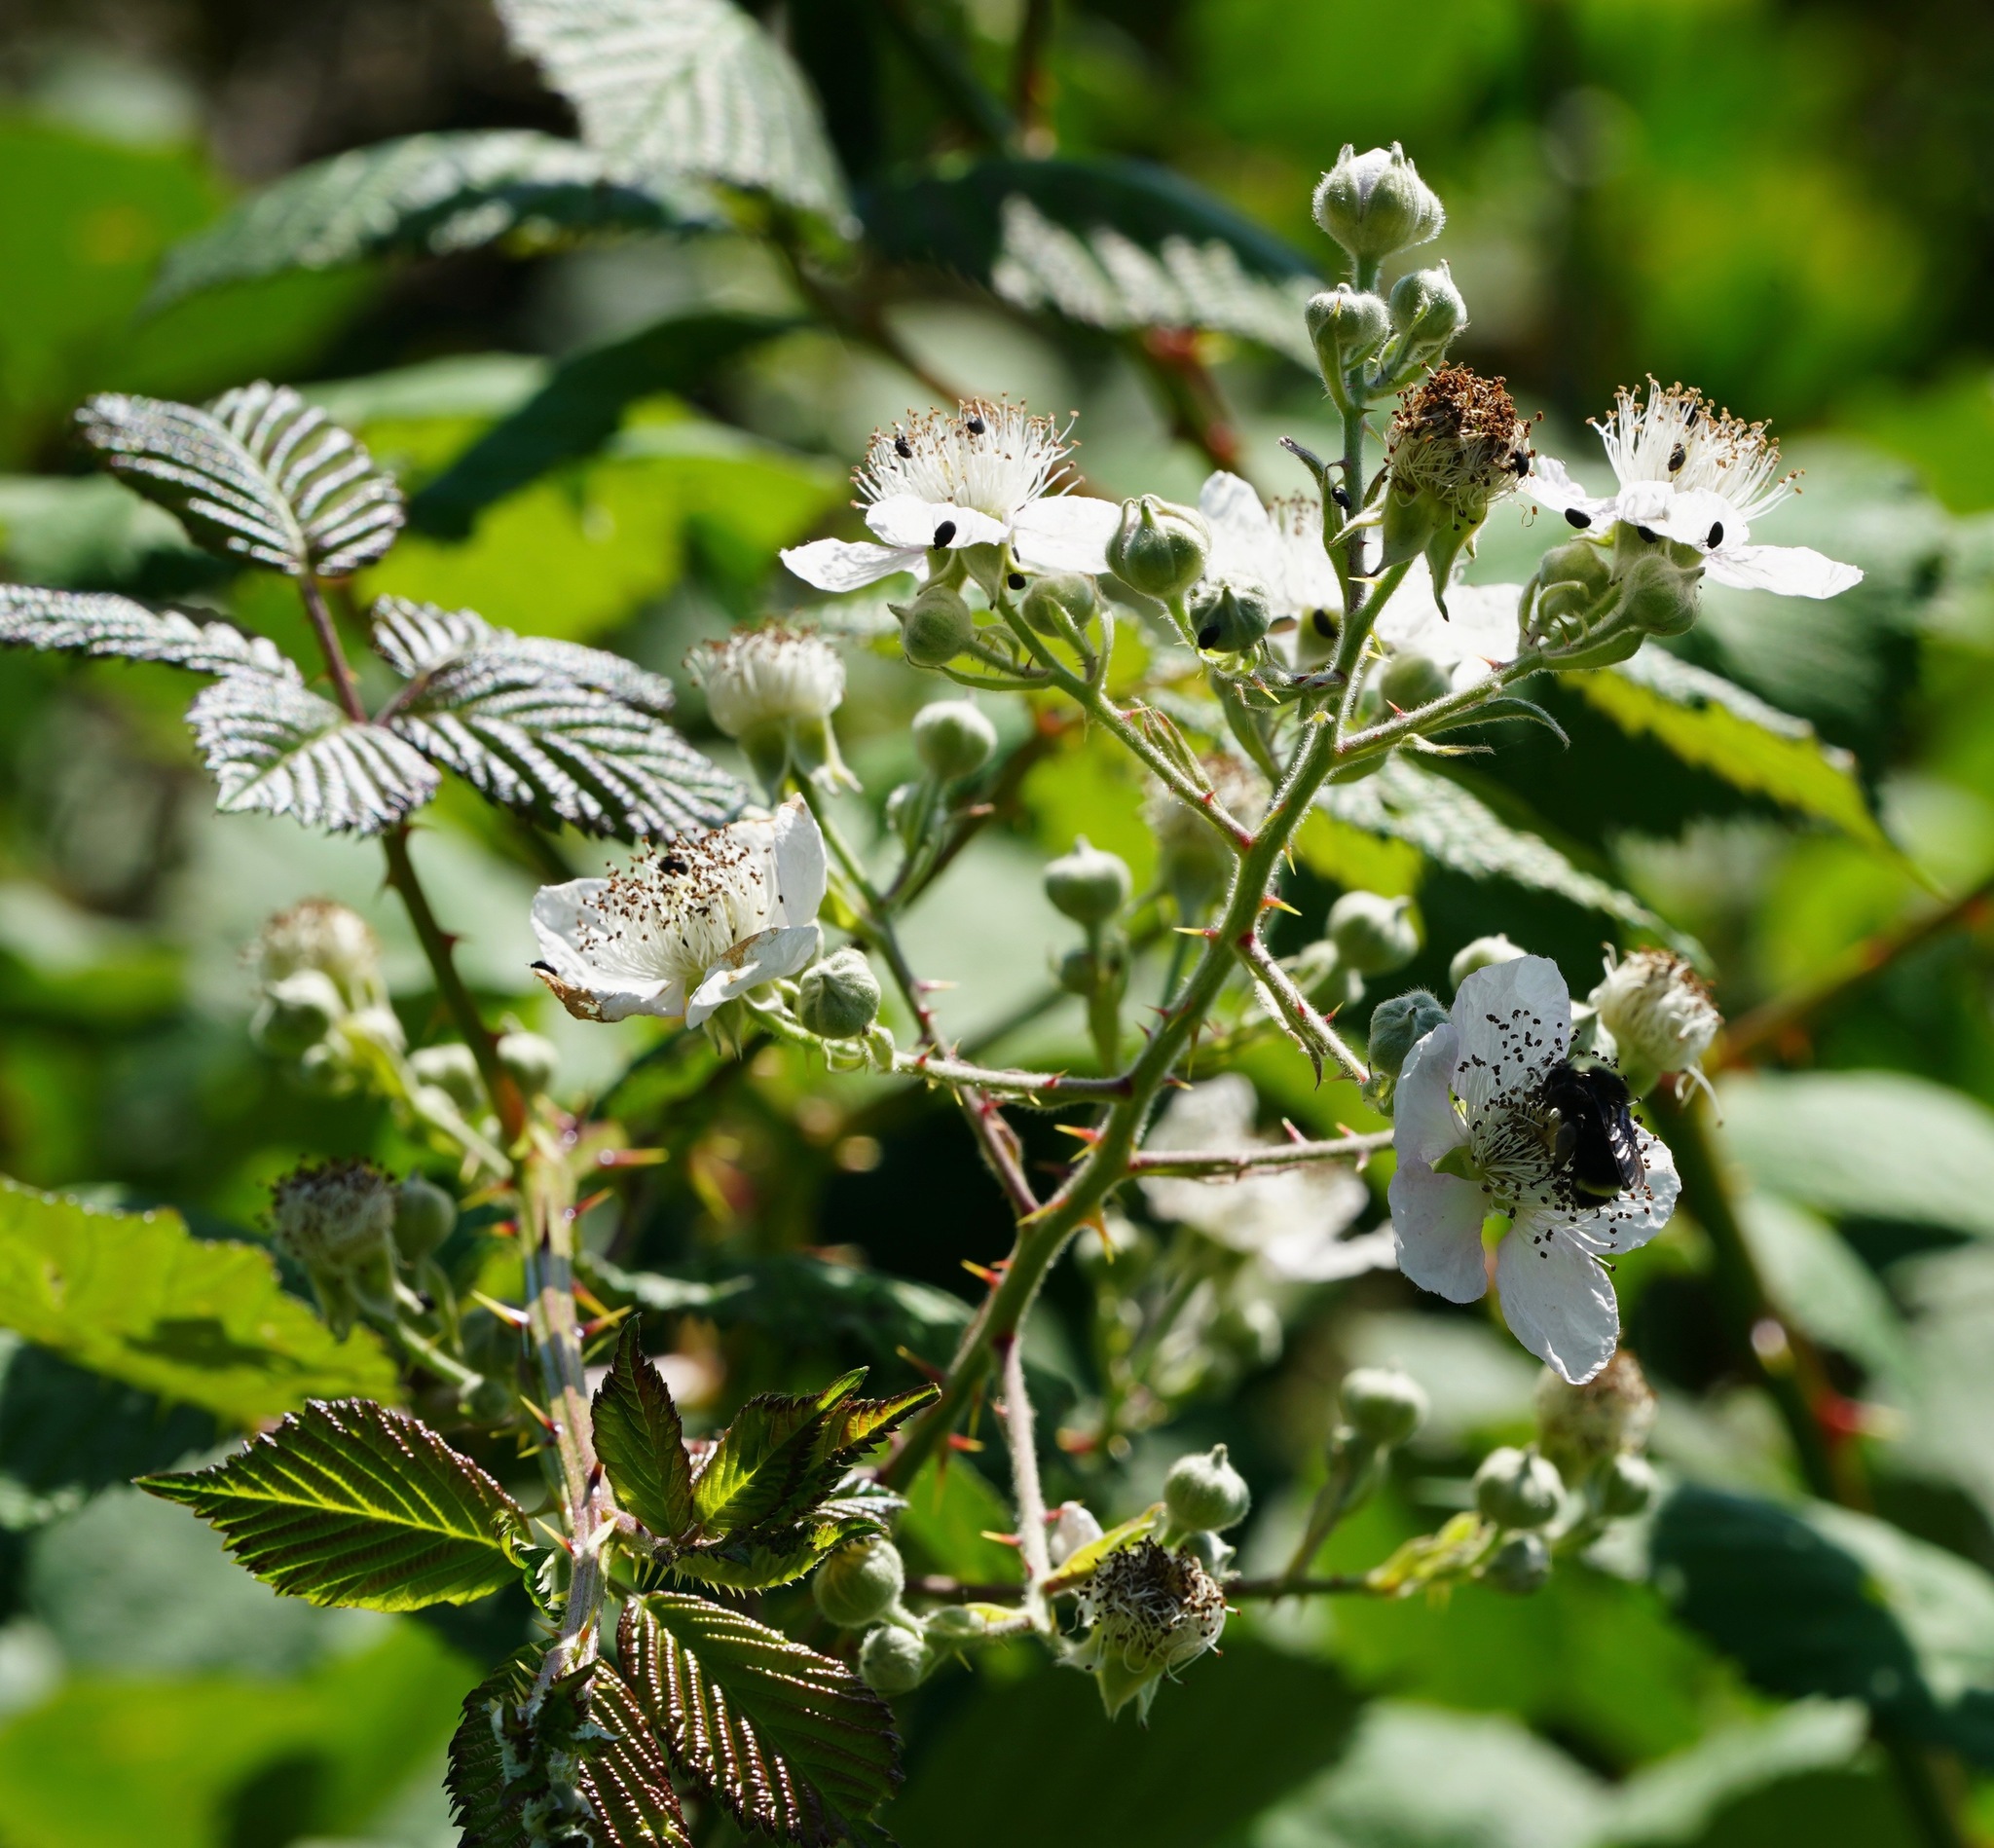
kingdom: Plantae
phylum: Tracheophyta
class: Magnoliopsida
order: Rosales
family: Rosaceae
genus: Rubus
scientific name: Rubus armeniacus
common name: Himalayan blackberry
